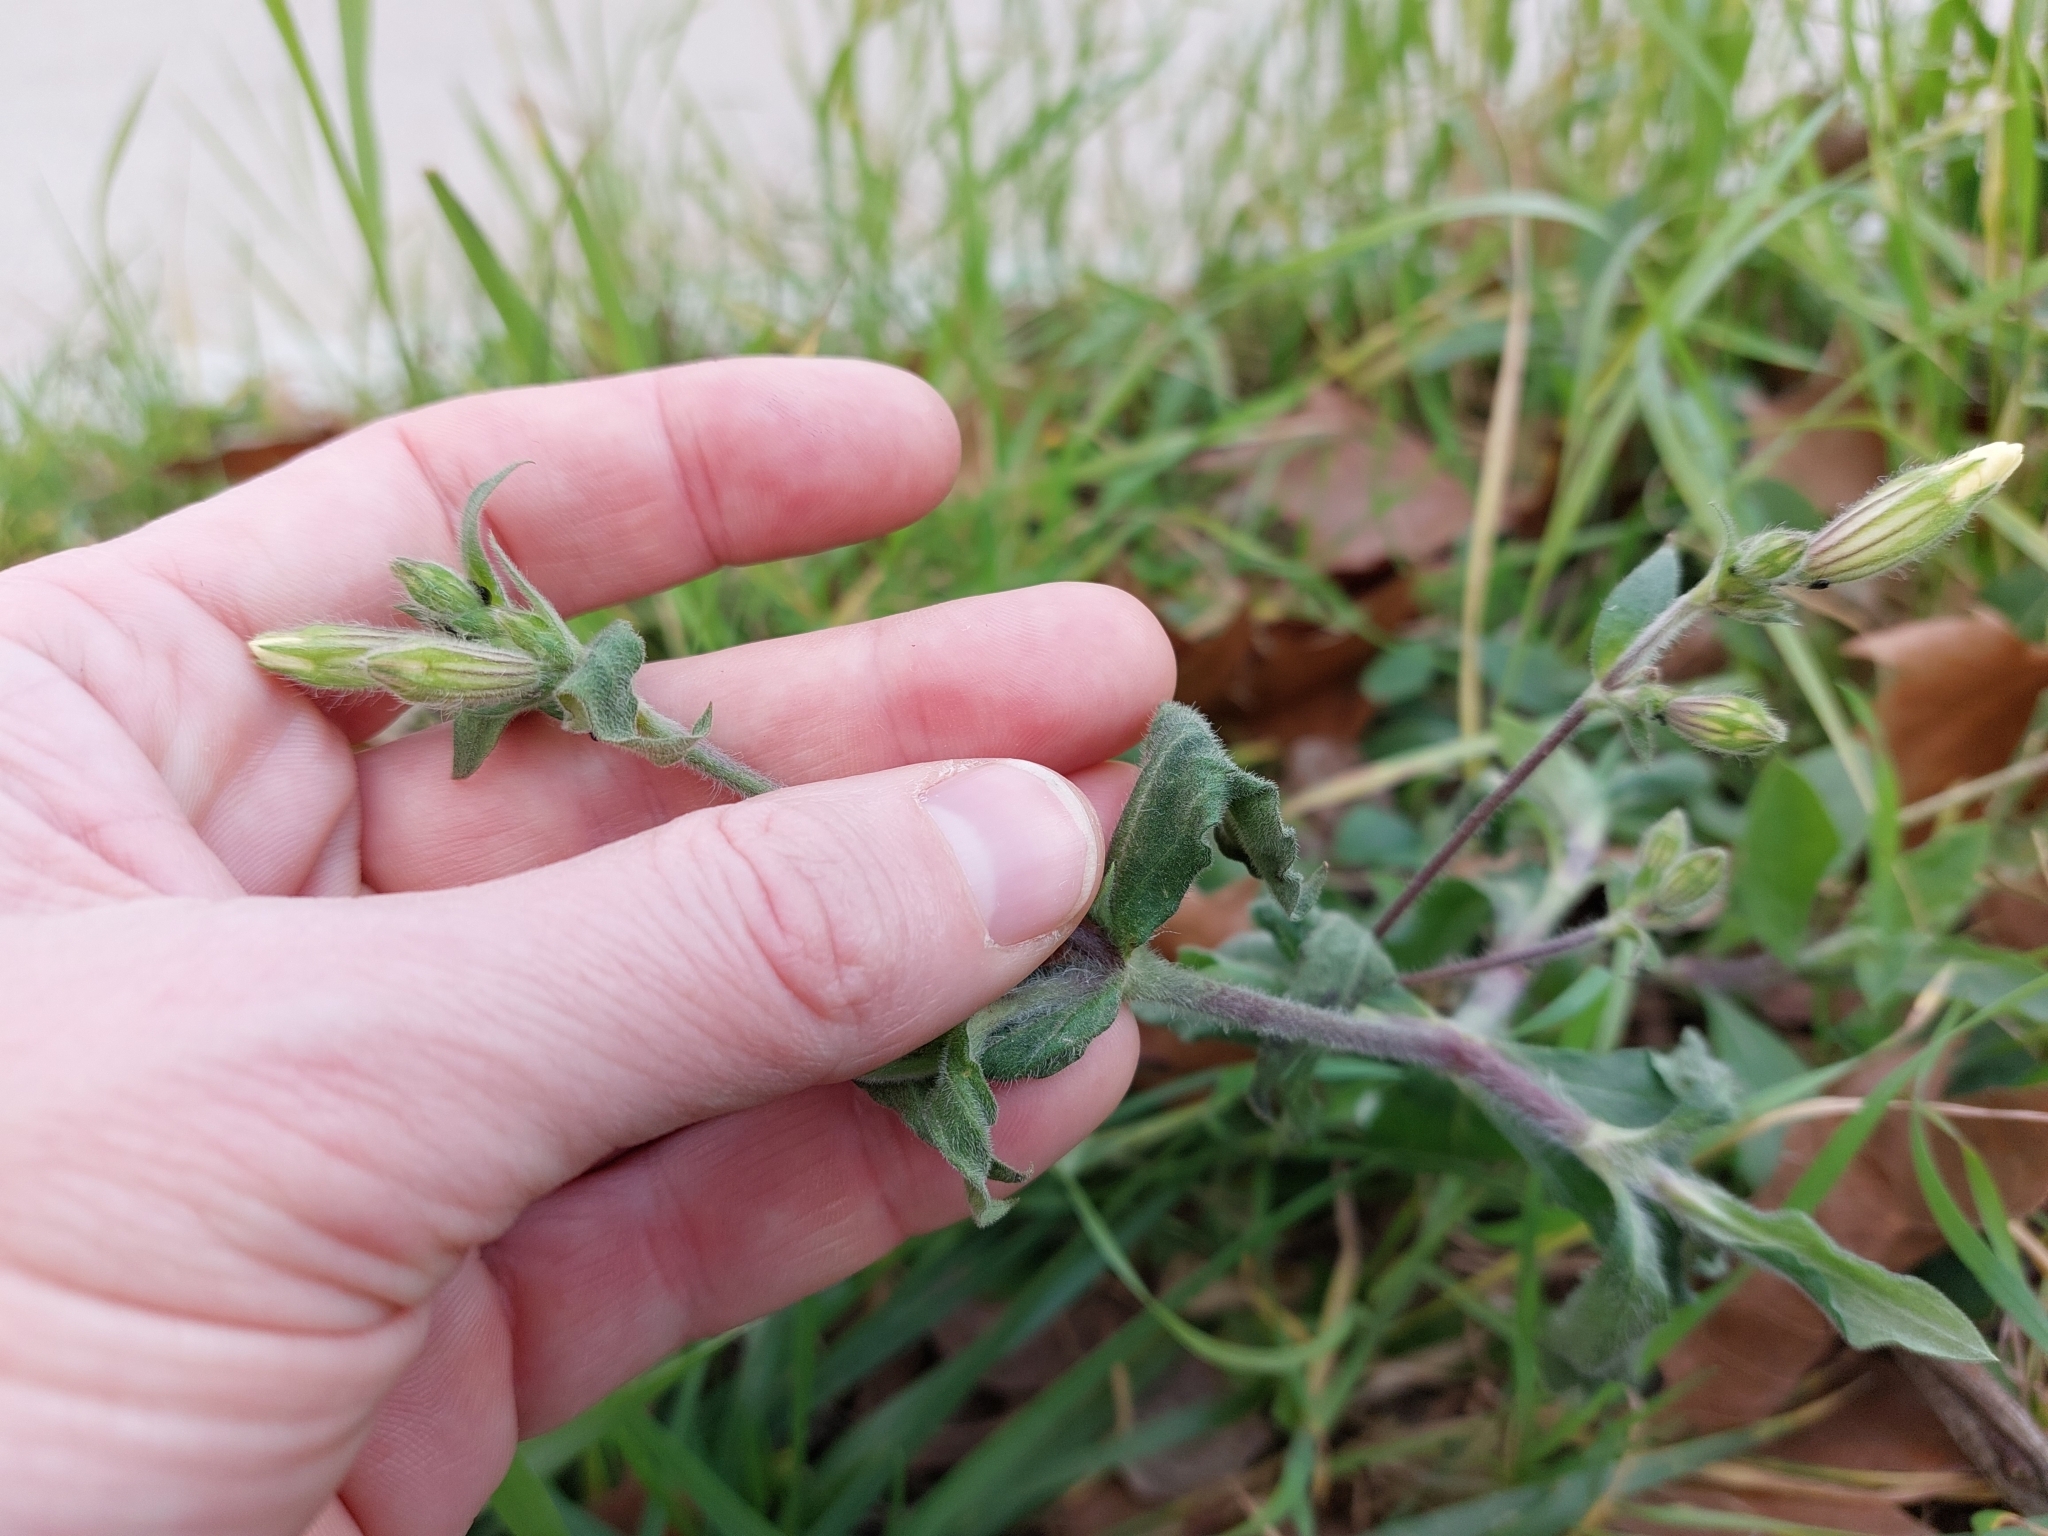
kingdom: Plantae
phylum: Tracheophyta
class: Magnoliopsida
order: Caryophyllales
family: Caryophyllaceae
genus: Silene
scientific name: Silene latifolia
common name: White campion
